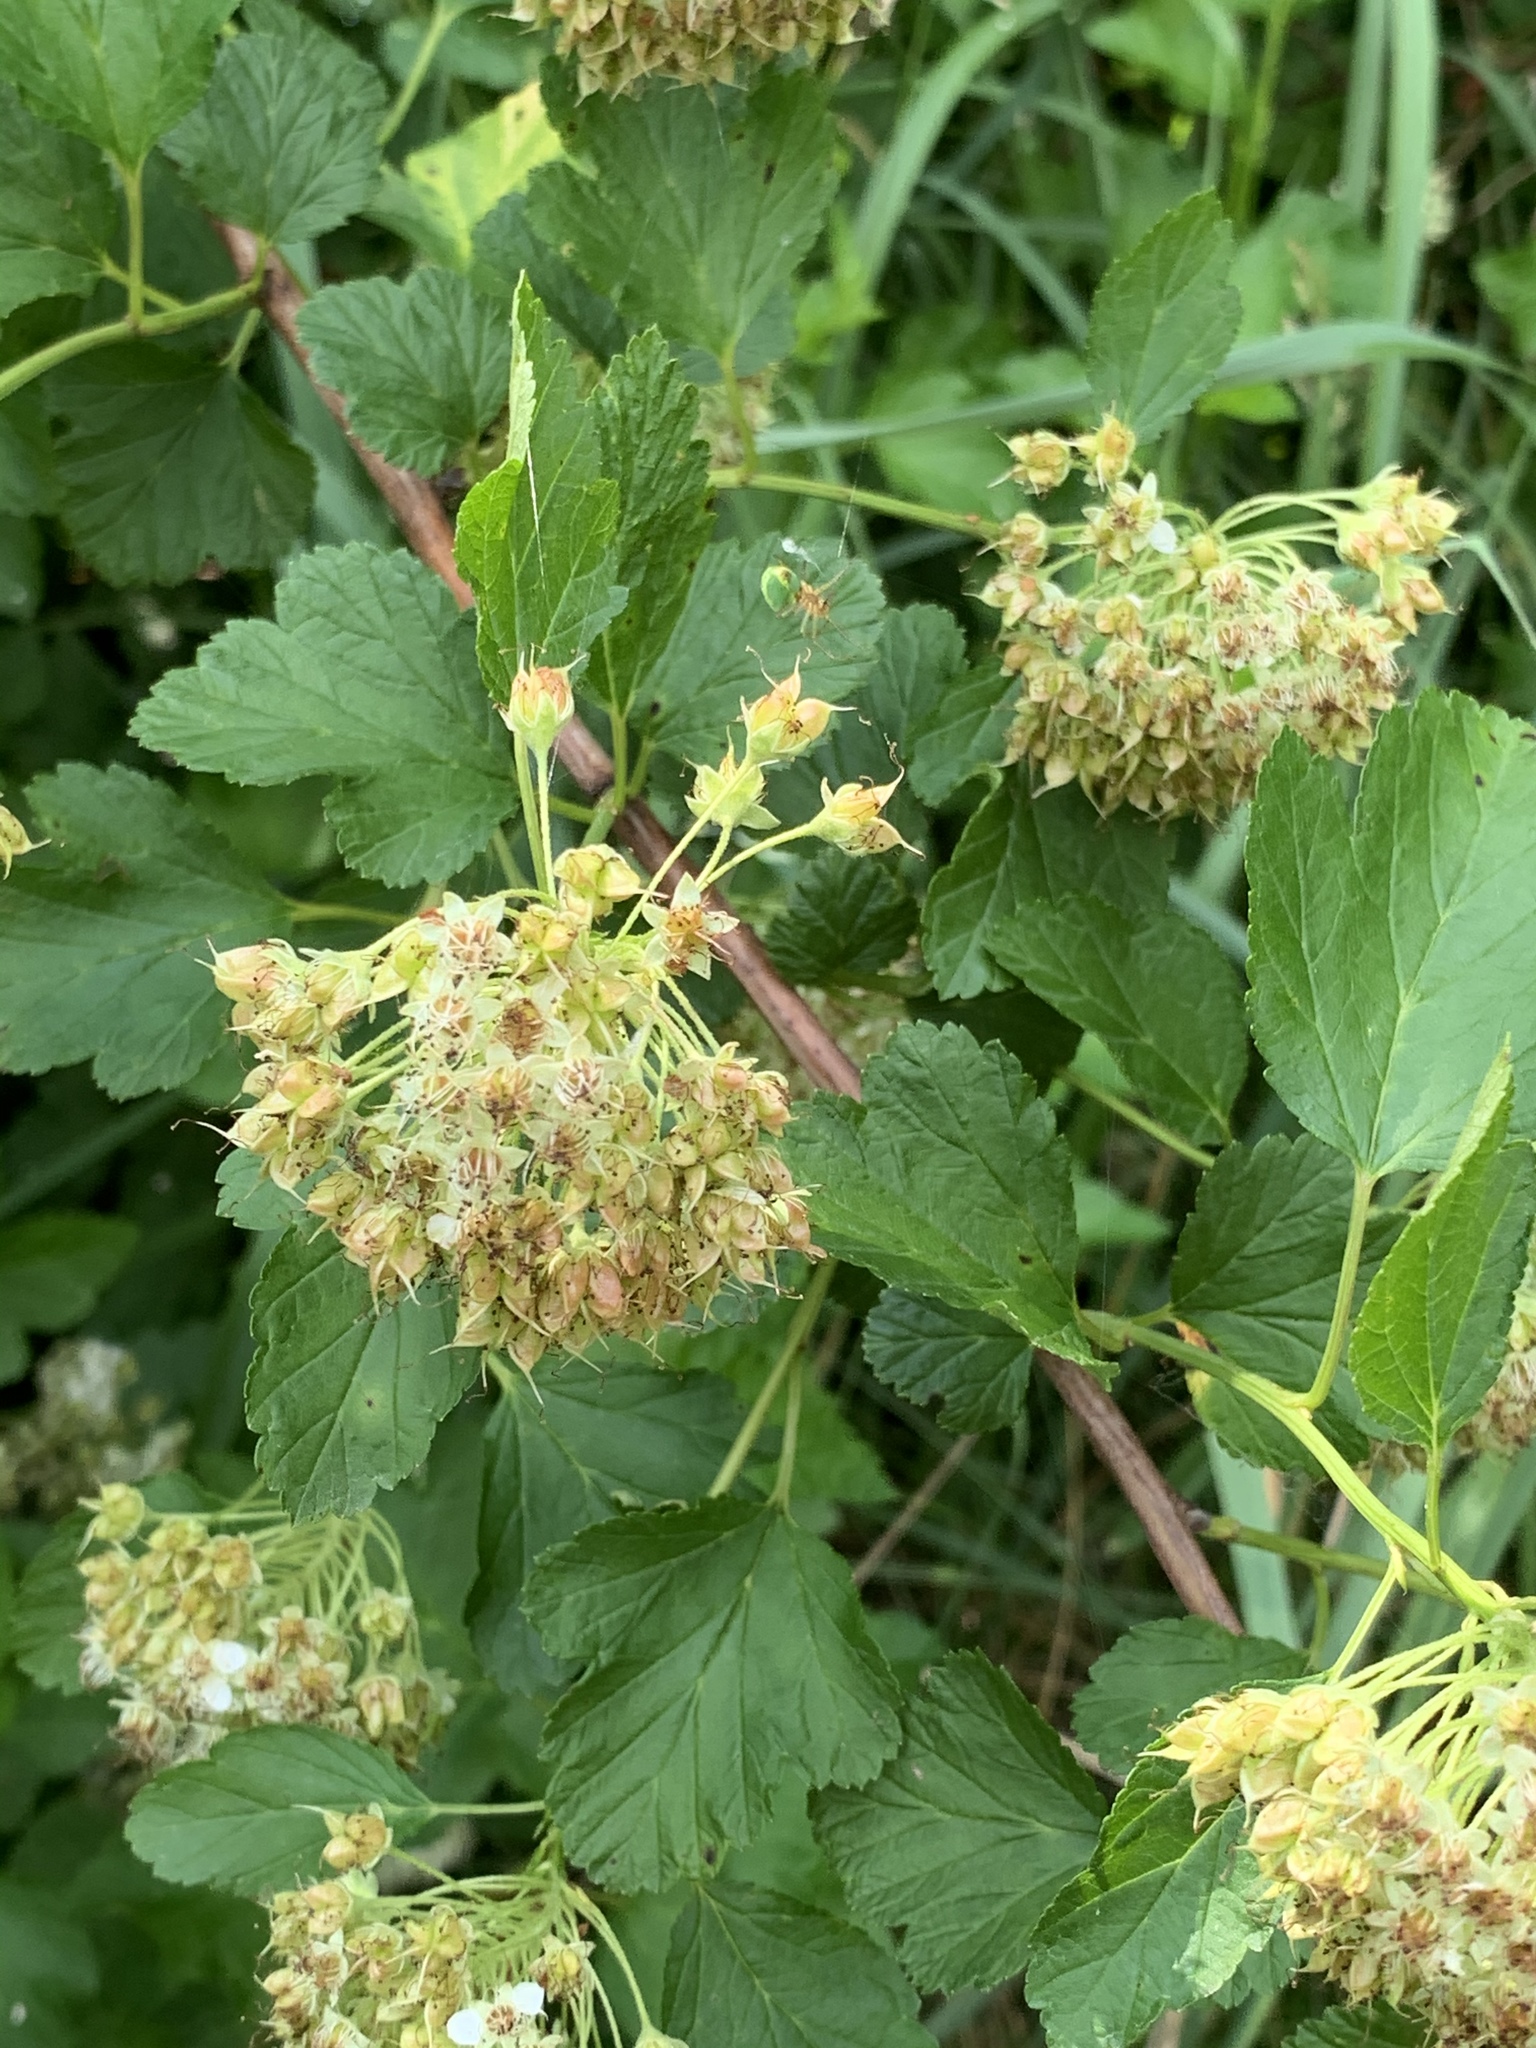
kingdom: Plantae
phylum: Tracheophyta
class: Magnoliopsida
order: Rosales
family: Rosaceae
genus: Physocarpus
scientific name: Physocarpus opulifolius
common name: Ninebark
